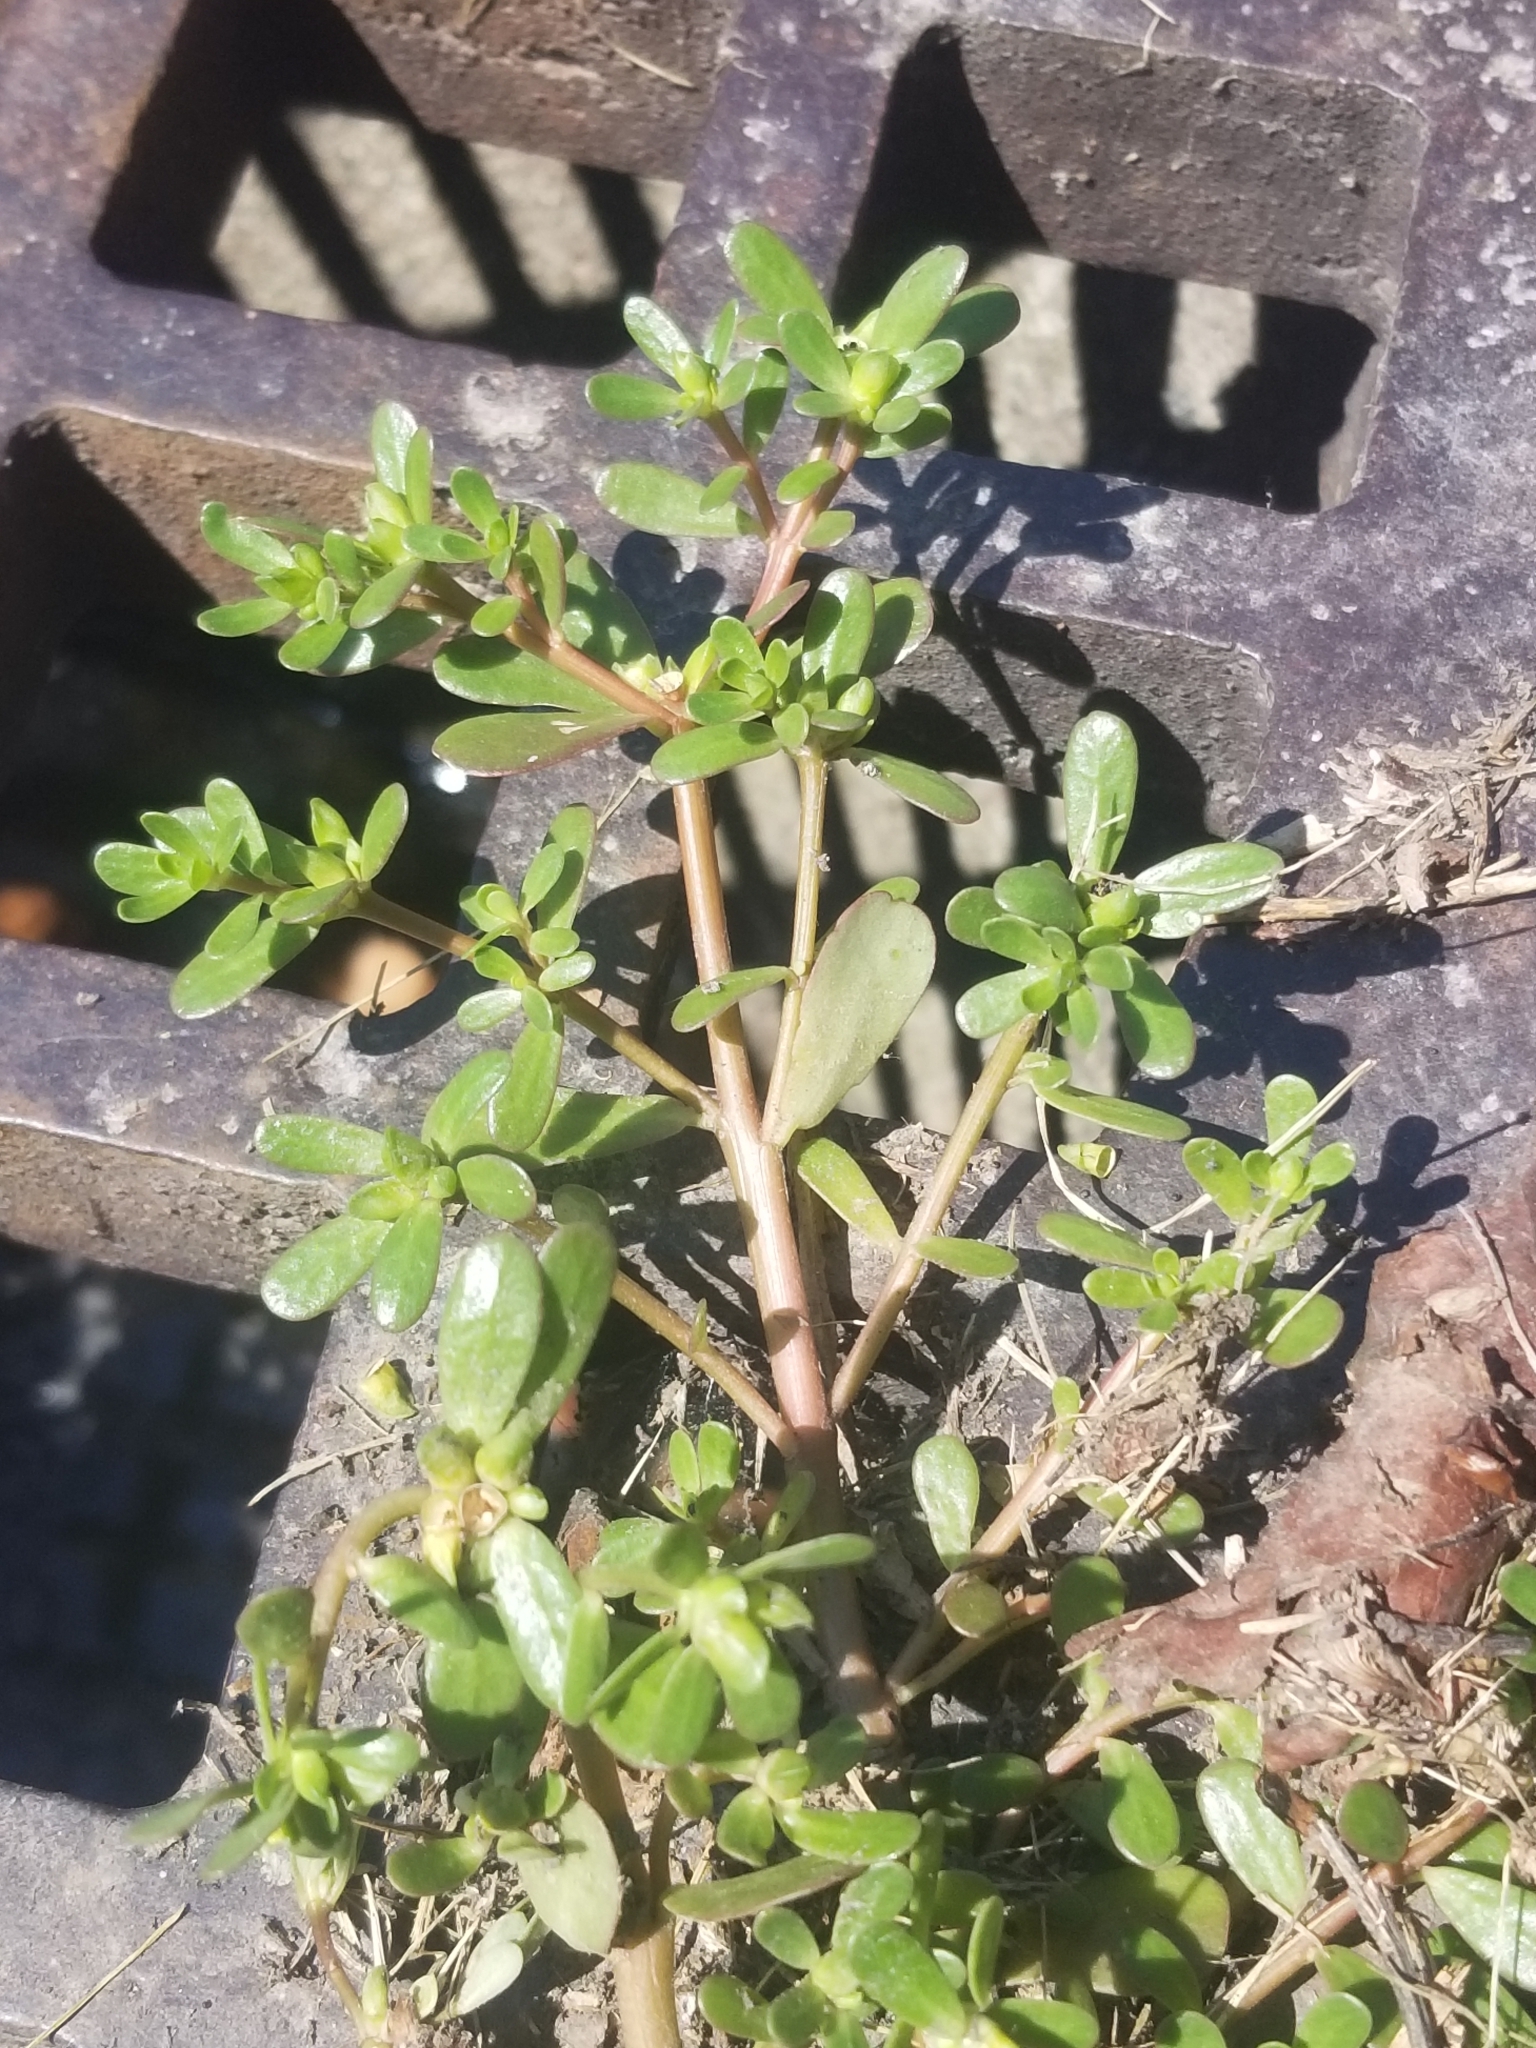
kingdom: Plantae
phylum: Tracheophyta
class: Magnoliopsida
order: Caryophyllales
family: Portulacaceae
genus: Portulaca
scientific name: Portulaca oleracea
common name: Common purslane
